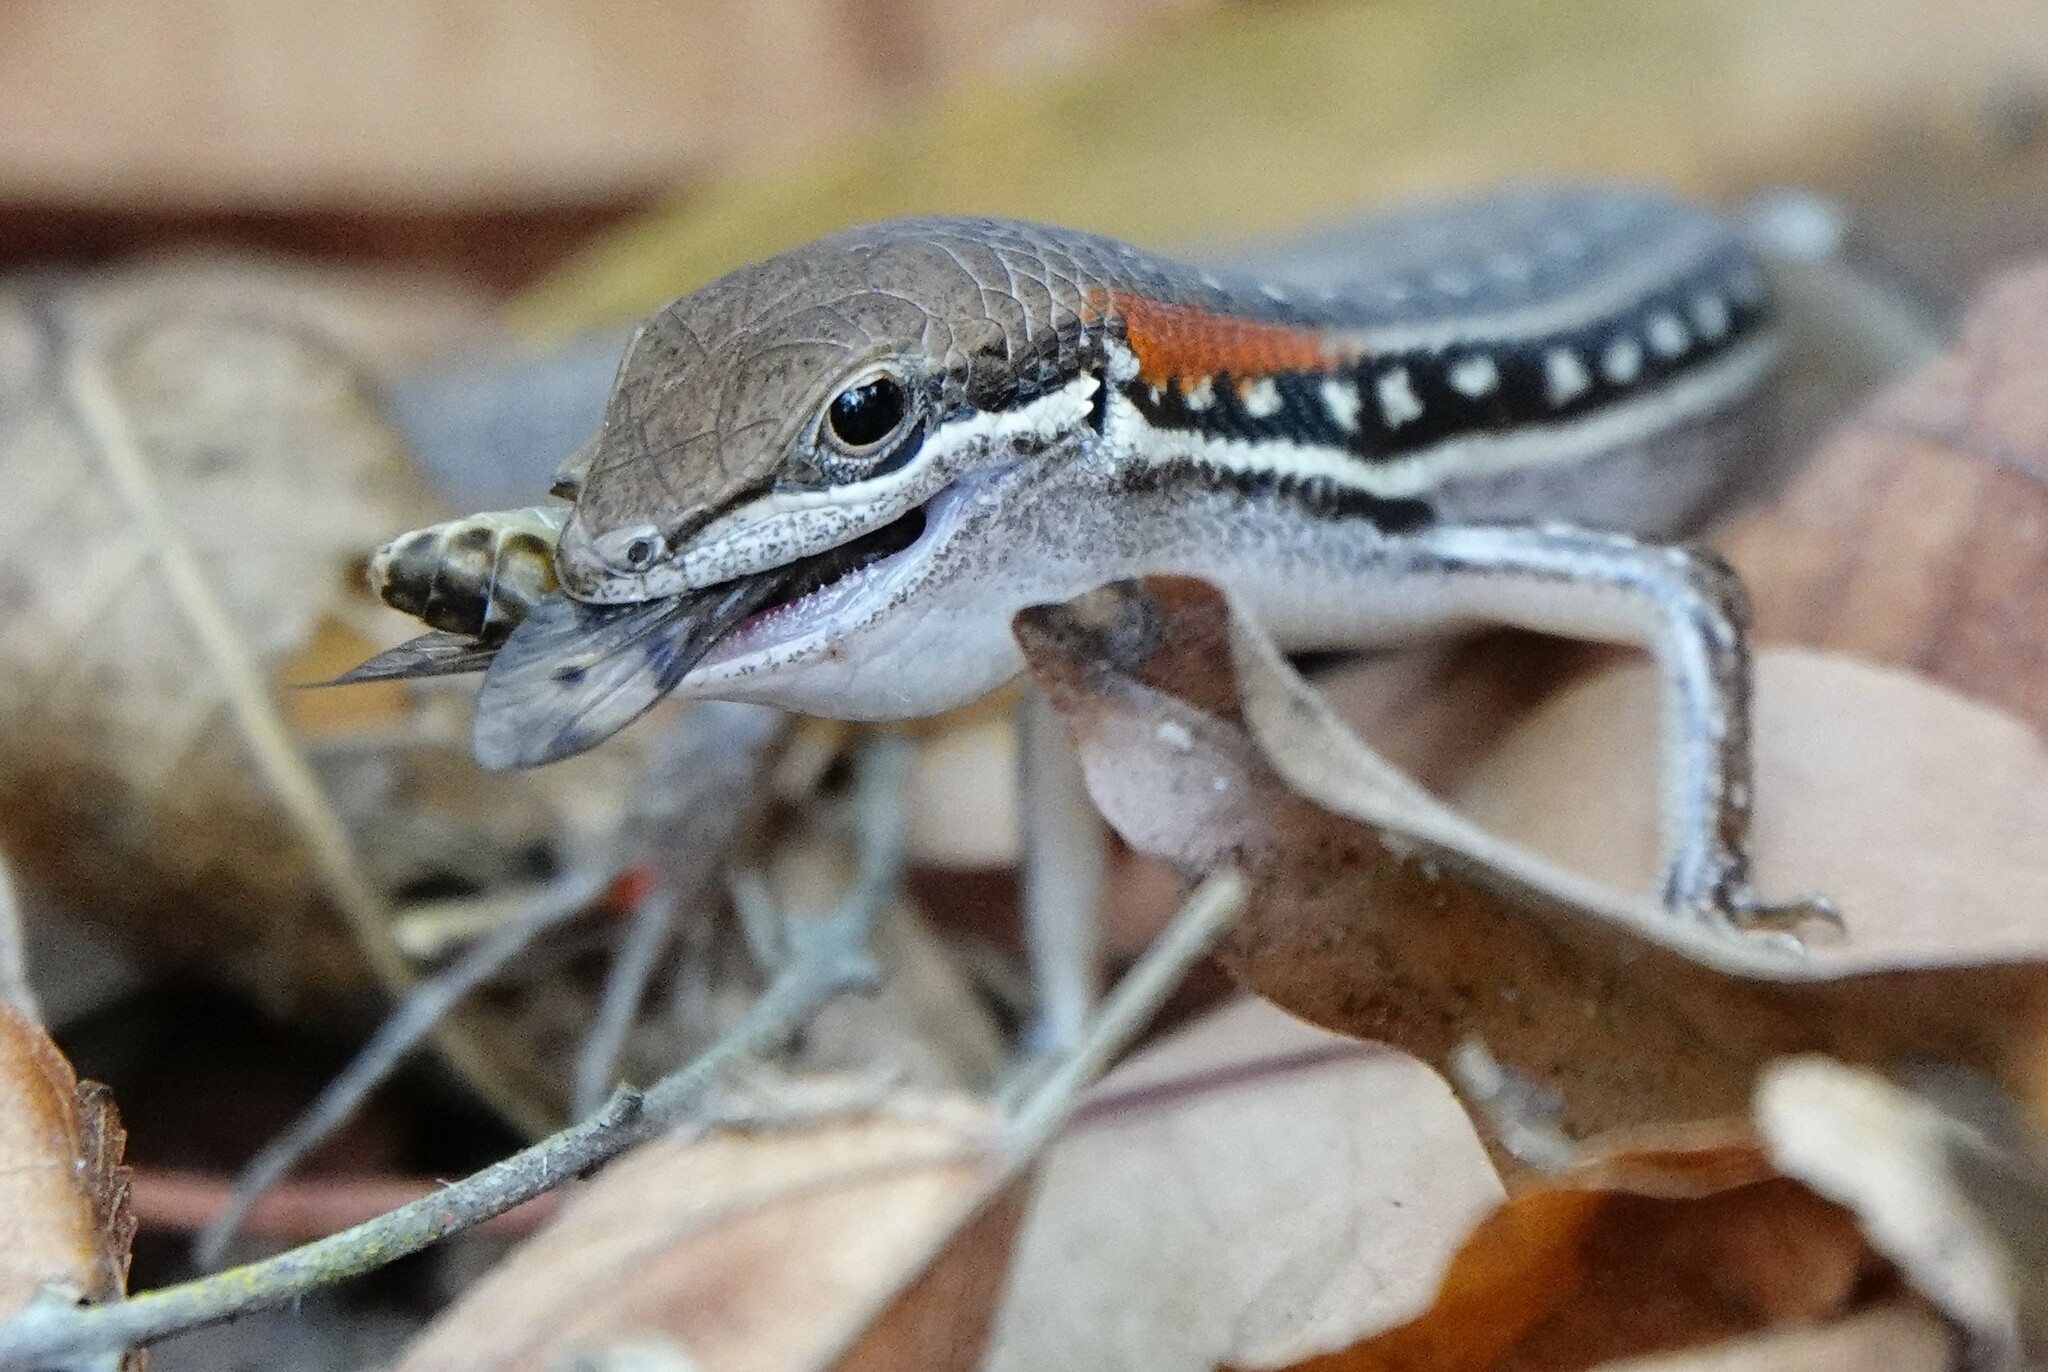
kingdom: Animalia
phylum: Chordata
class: Squamata
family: Scincidae
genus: Trachylepis
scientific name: Trachylepis elegans
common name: Elegant mabuya
